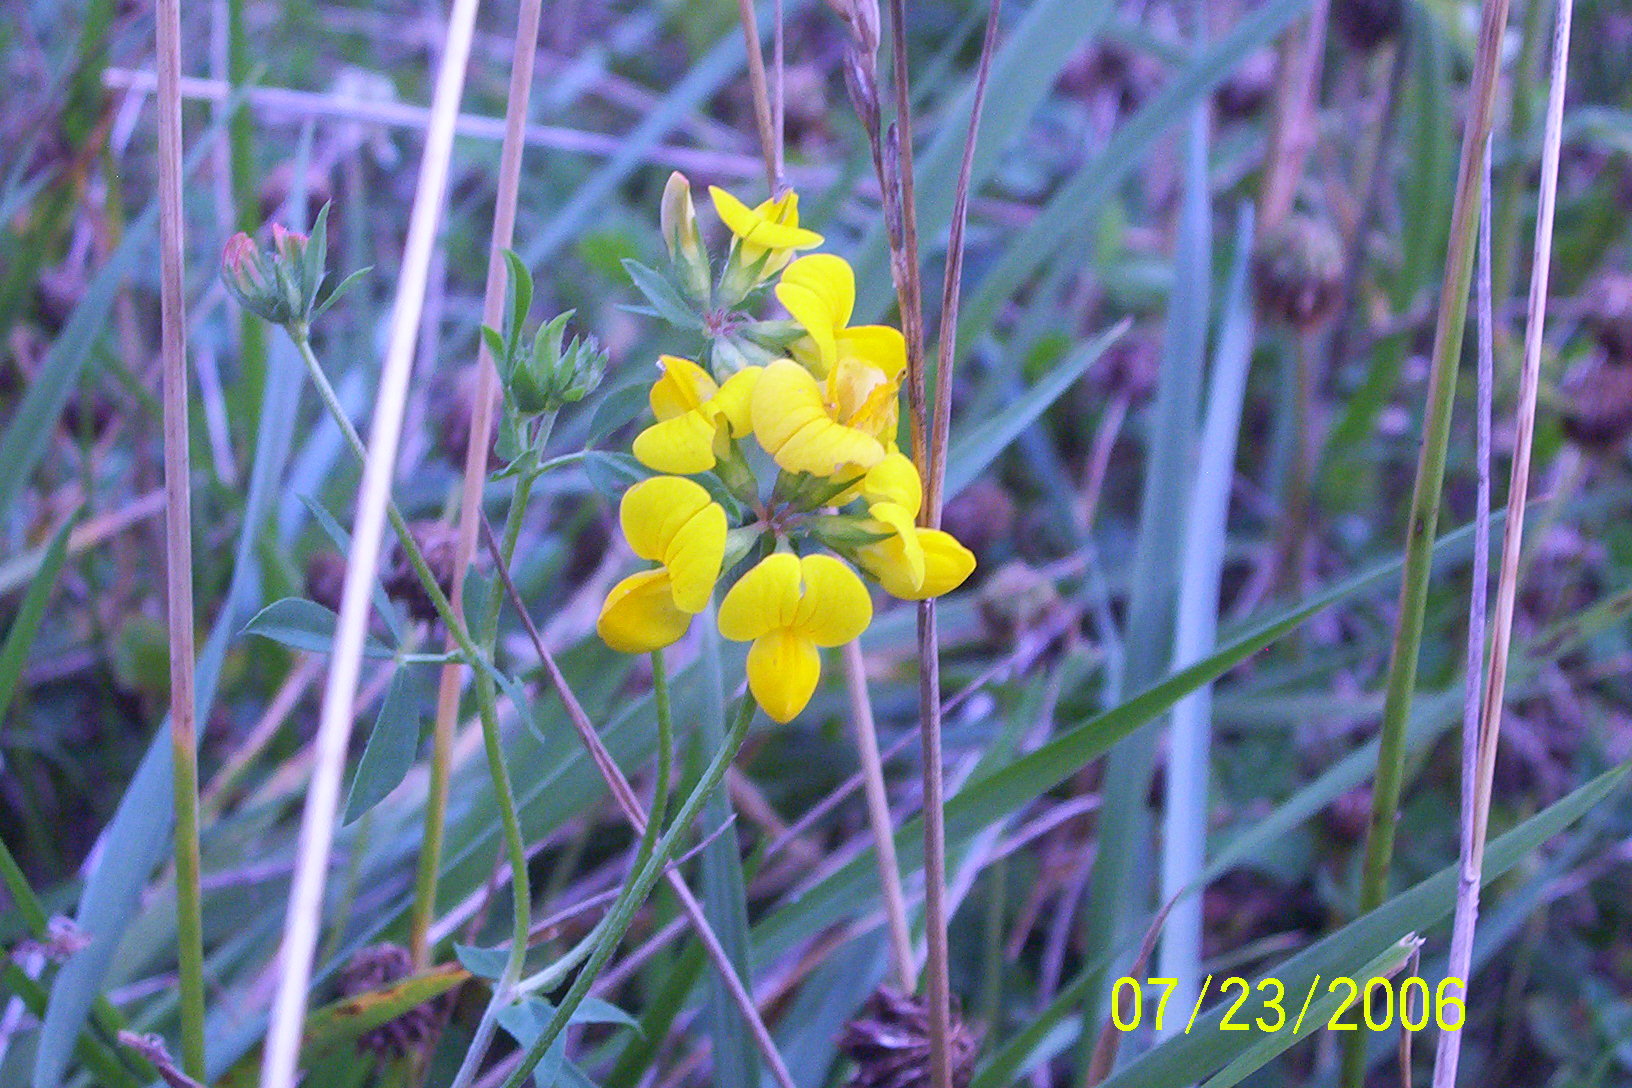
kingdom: Plantae
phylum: Tracheophyta
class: Magnoliopsida
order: Fabales
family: Fabaceae
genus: Lotus
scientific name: Lotus corniculatus
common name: Common bird's-foot-trefoil
